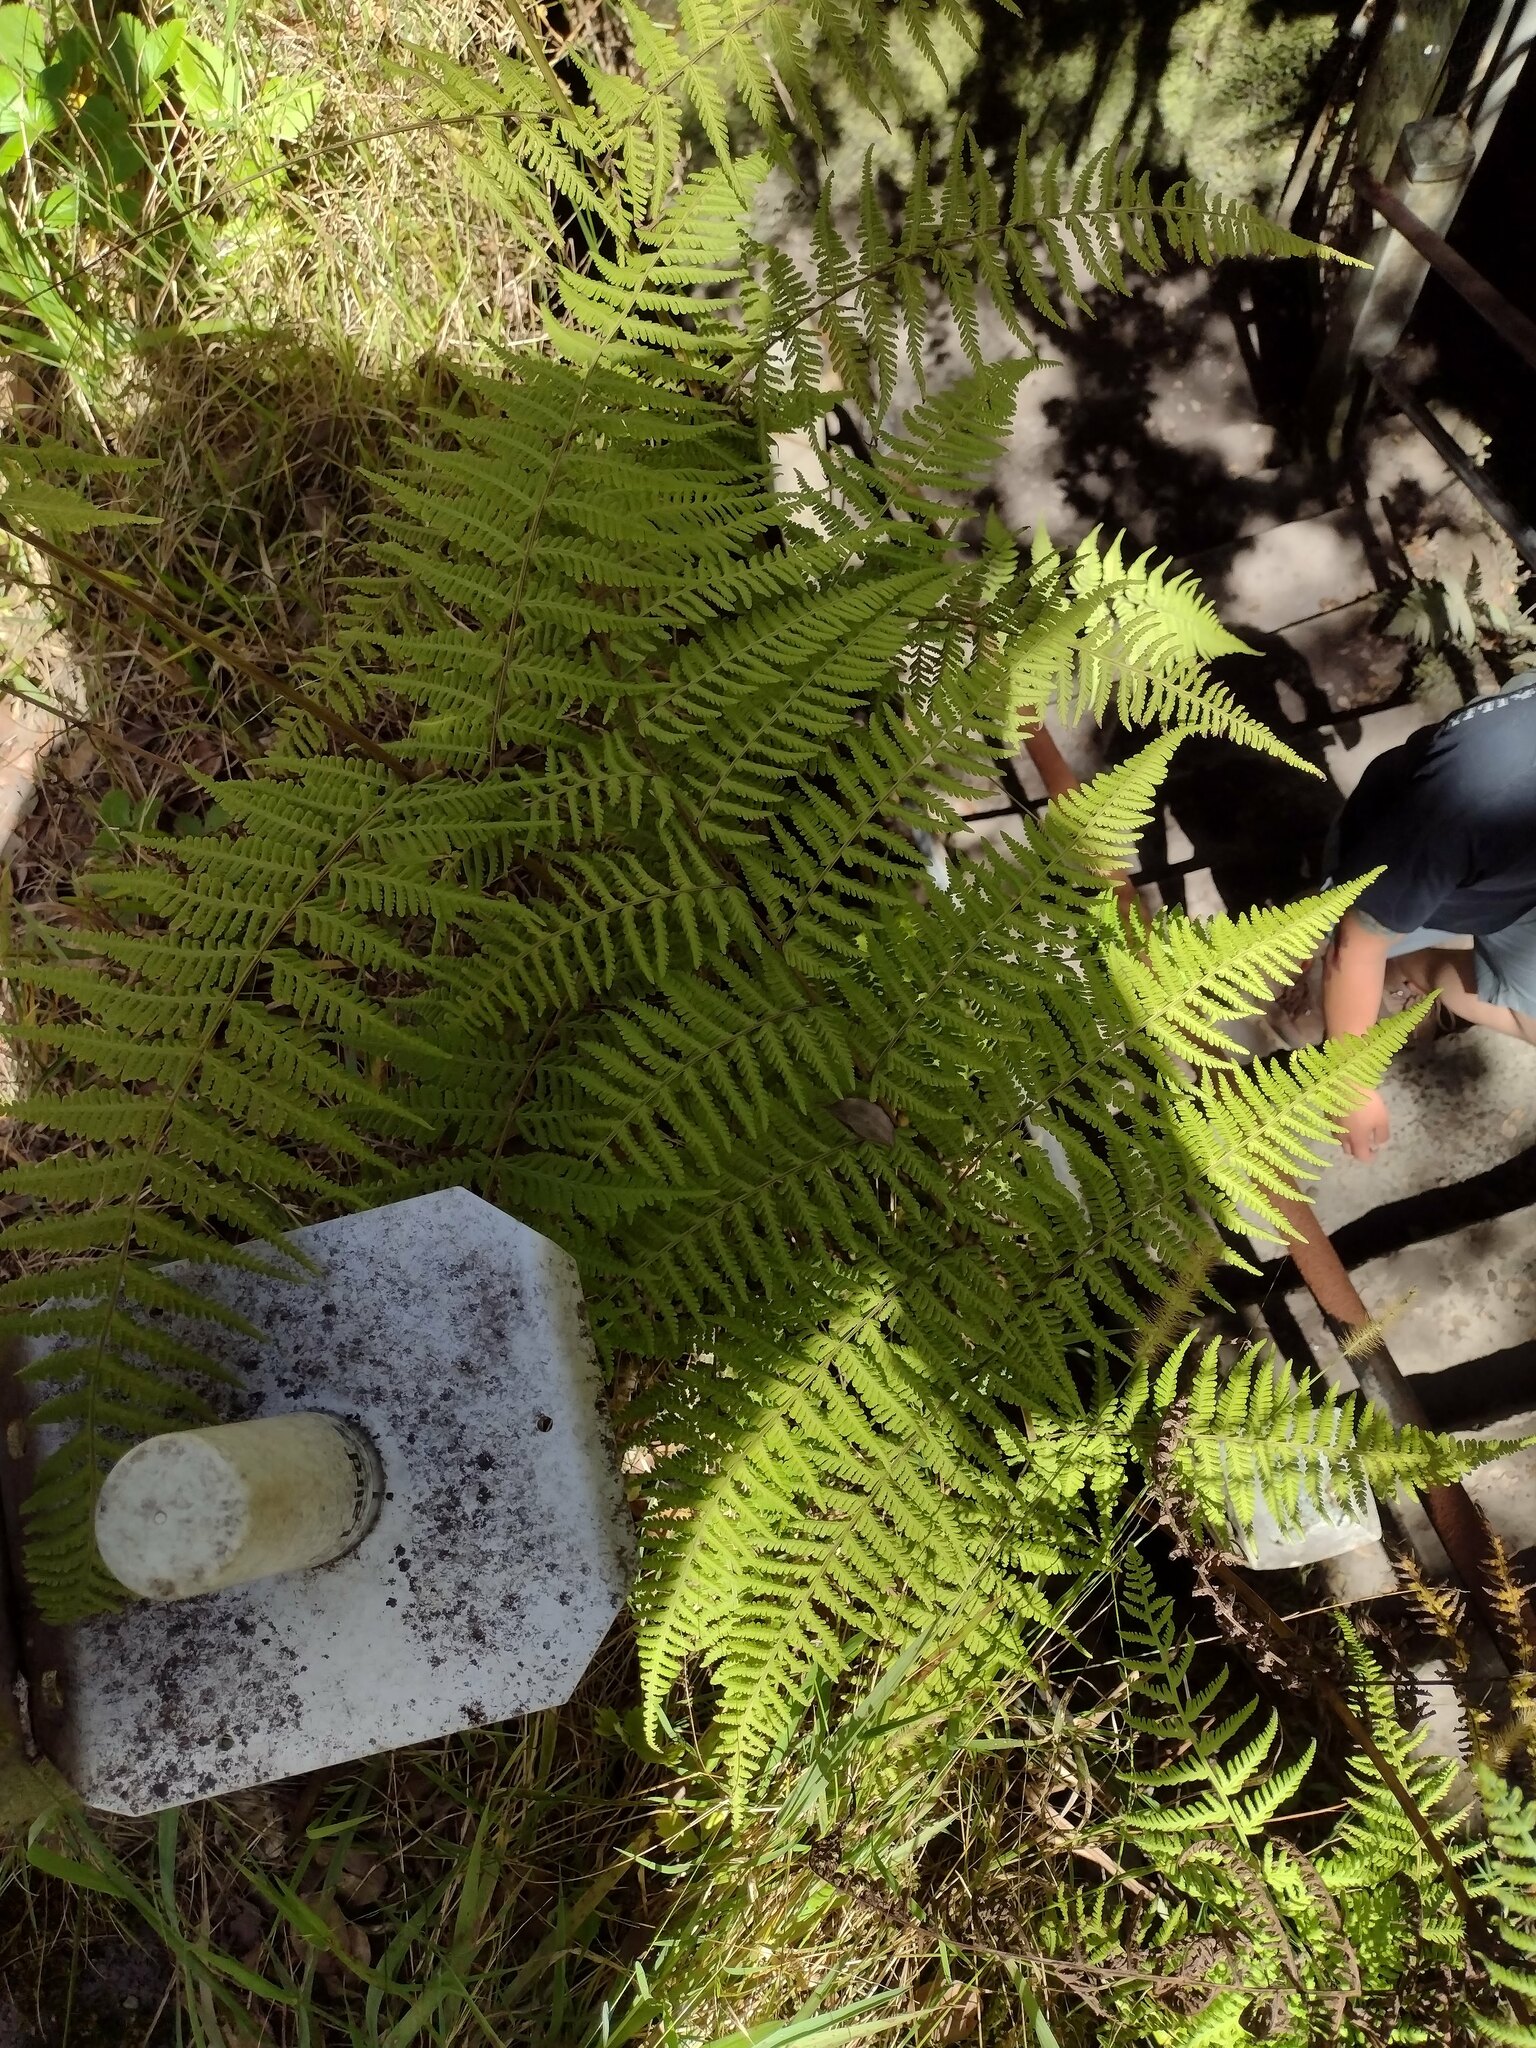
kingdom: Plantae
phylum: Tracheophyta
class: Polypodiopsida
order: Polypodiales
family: Thelypteridaceae
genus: Macrothelypteris
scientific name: Macrothelypteris torresiana
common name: Swordfern
